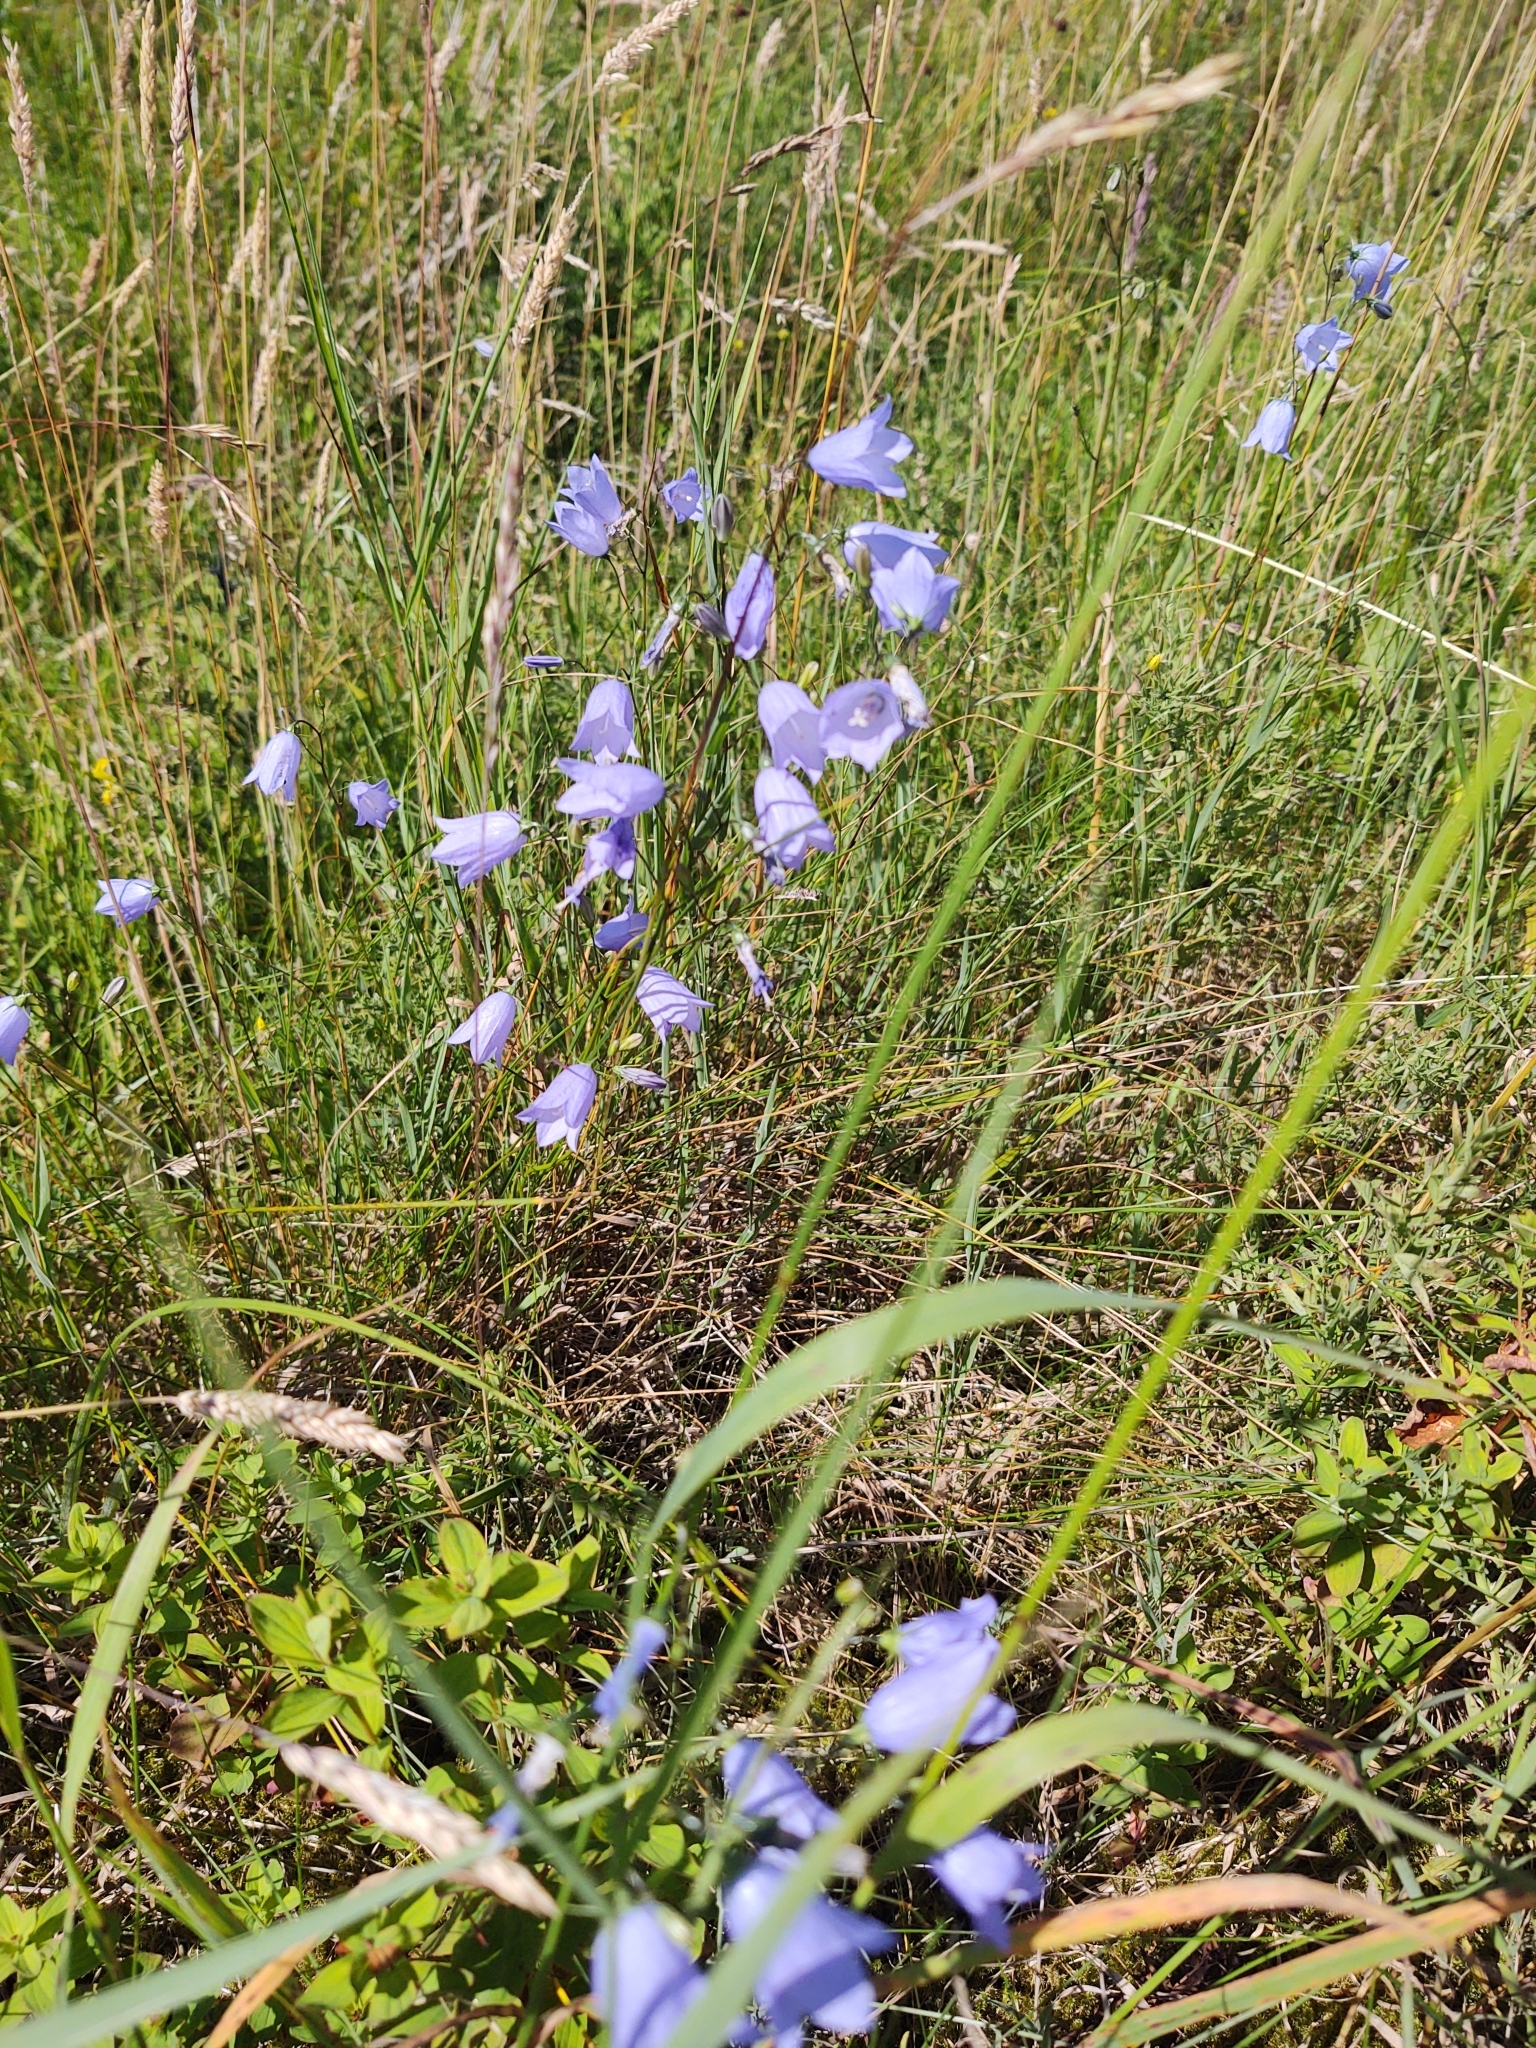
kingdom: Plantae
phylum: Tracheophyta
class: Magnoliopsida
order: Asterales
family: Campanulaceae
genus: Campanula
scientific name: Campanula rotundifolia
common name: Harebell
